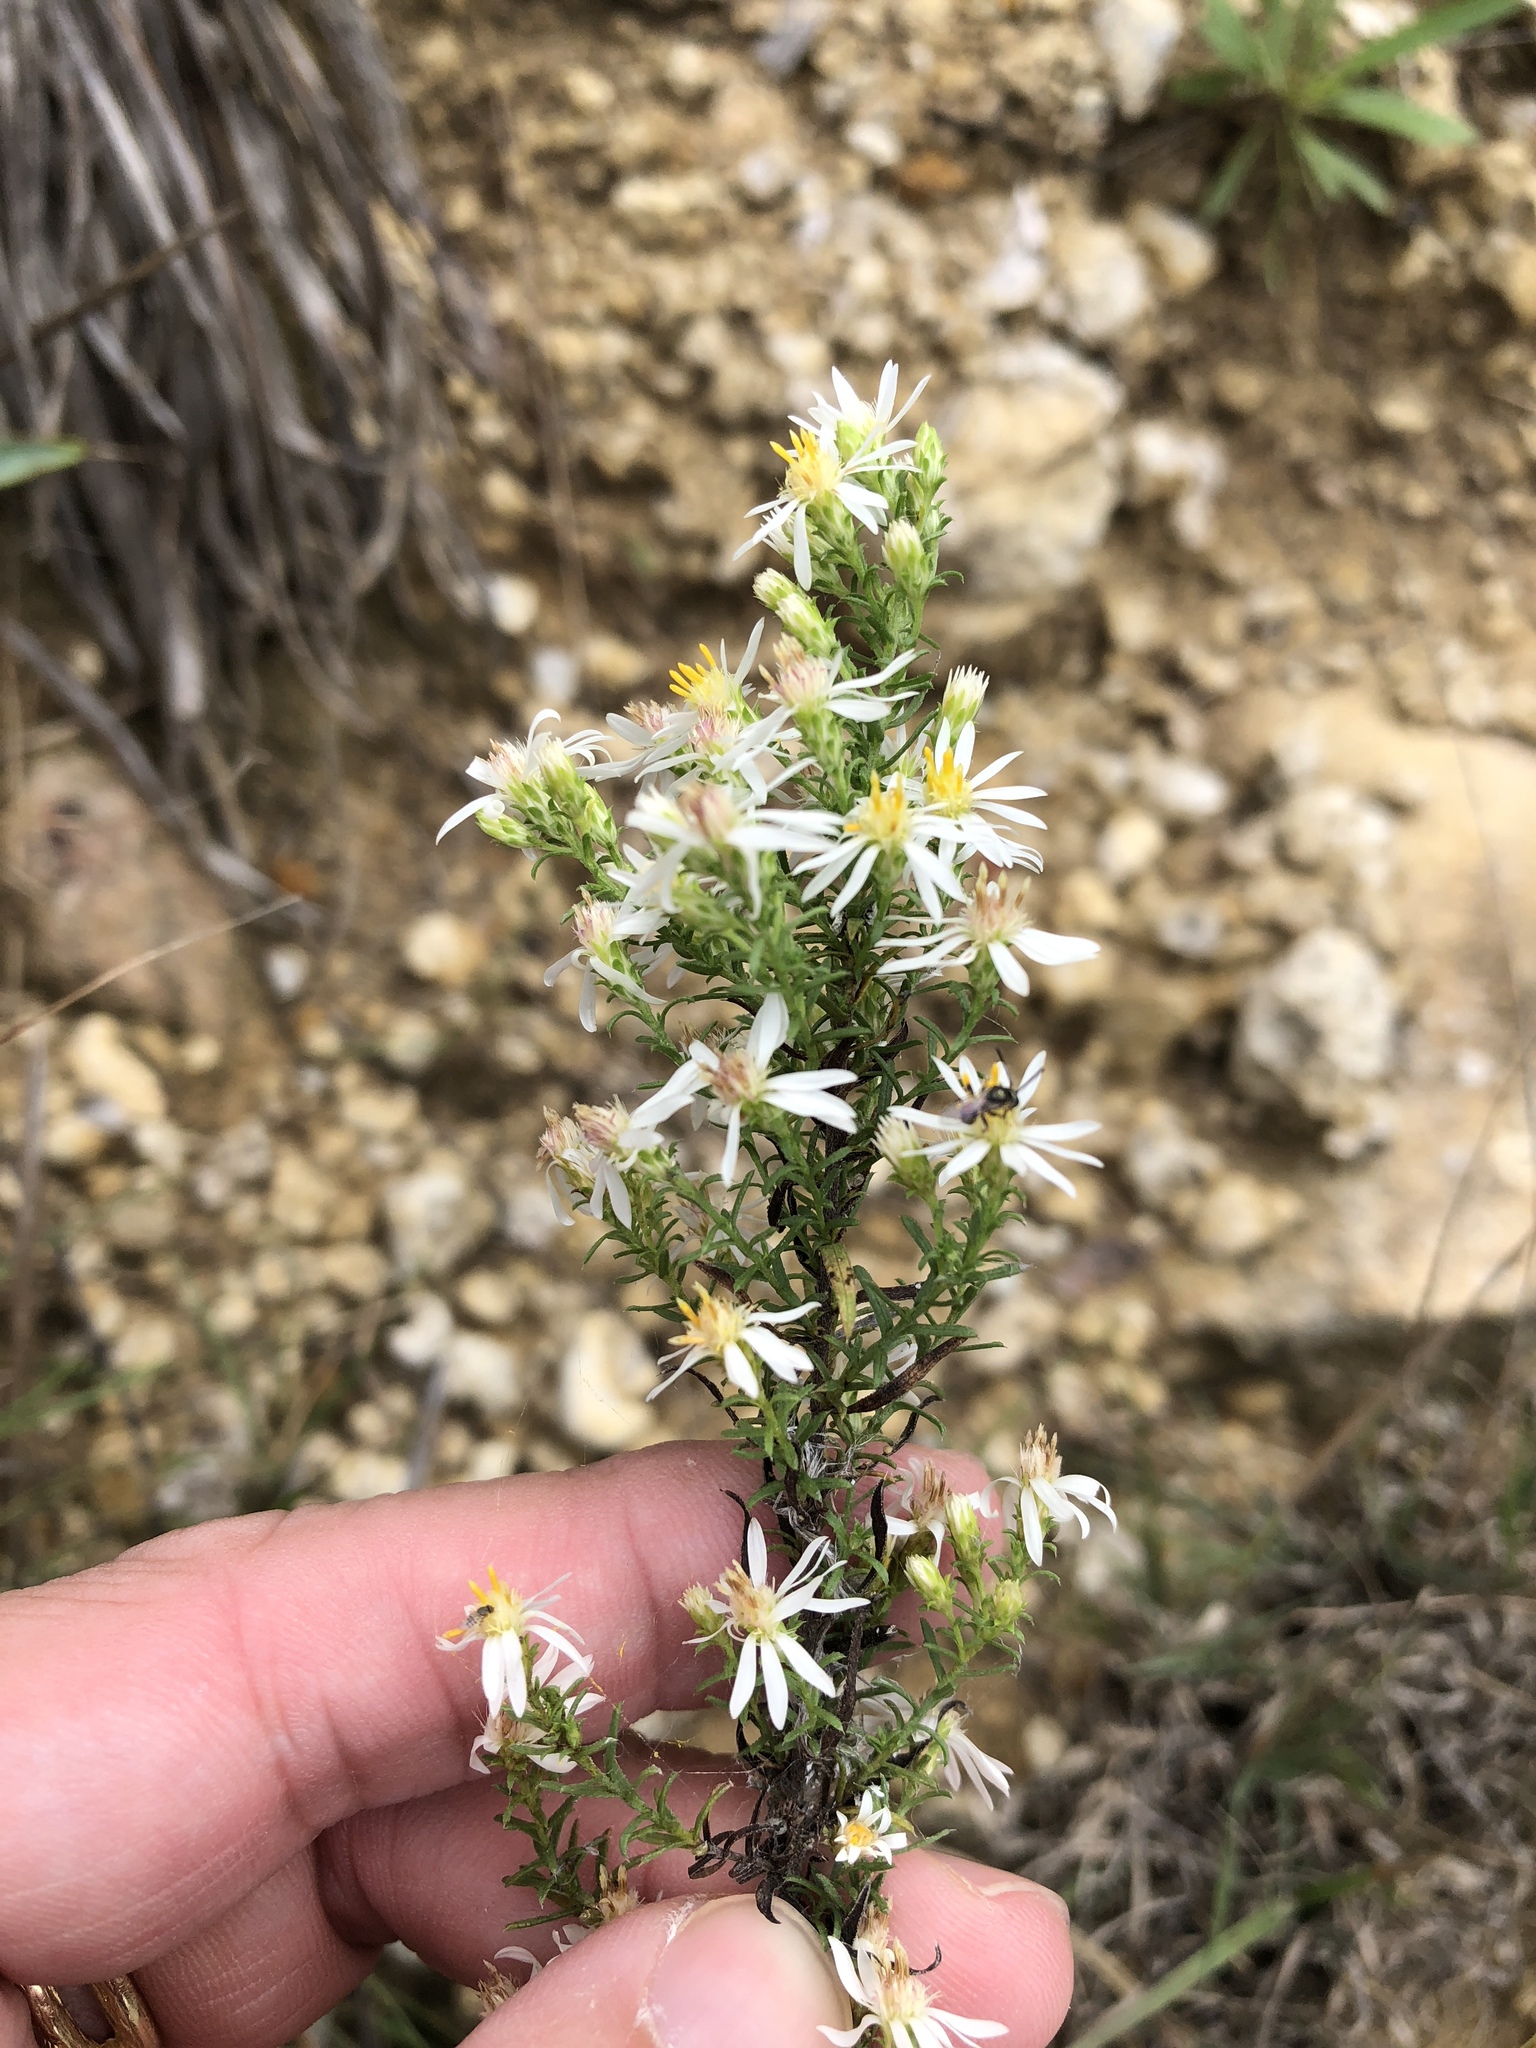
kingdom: Plantae
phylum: Tracheophyta
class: Magnoliopsida
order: Asterales
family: Asteraceae
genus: Symphyotrichum
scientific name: Symphyotrichum ericoides
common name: Heath aster
